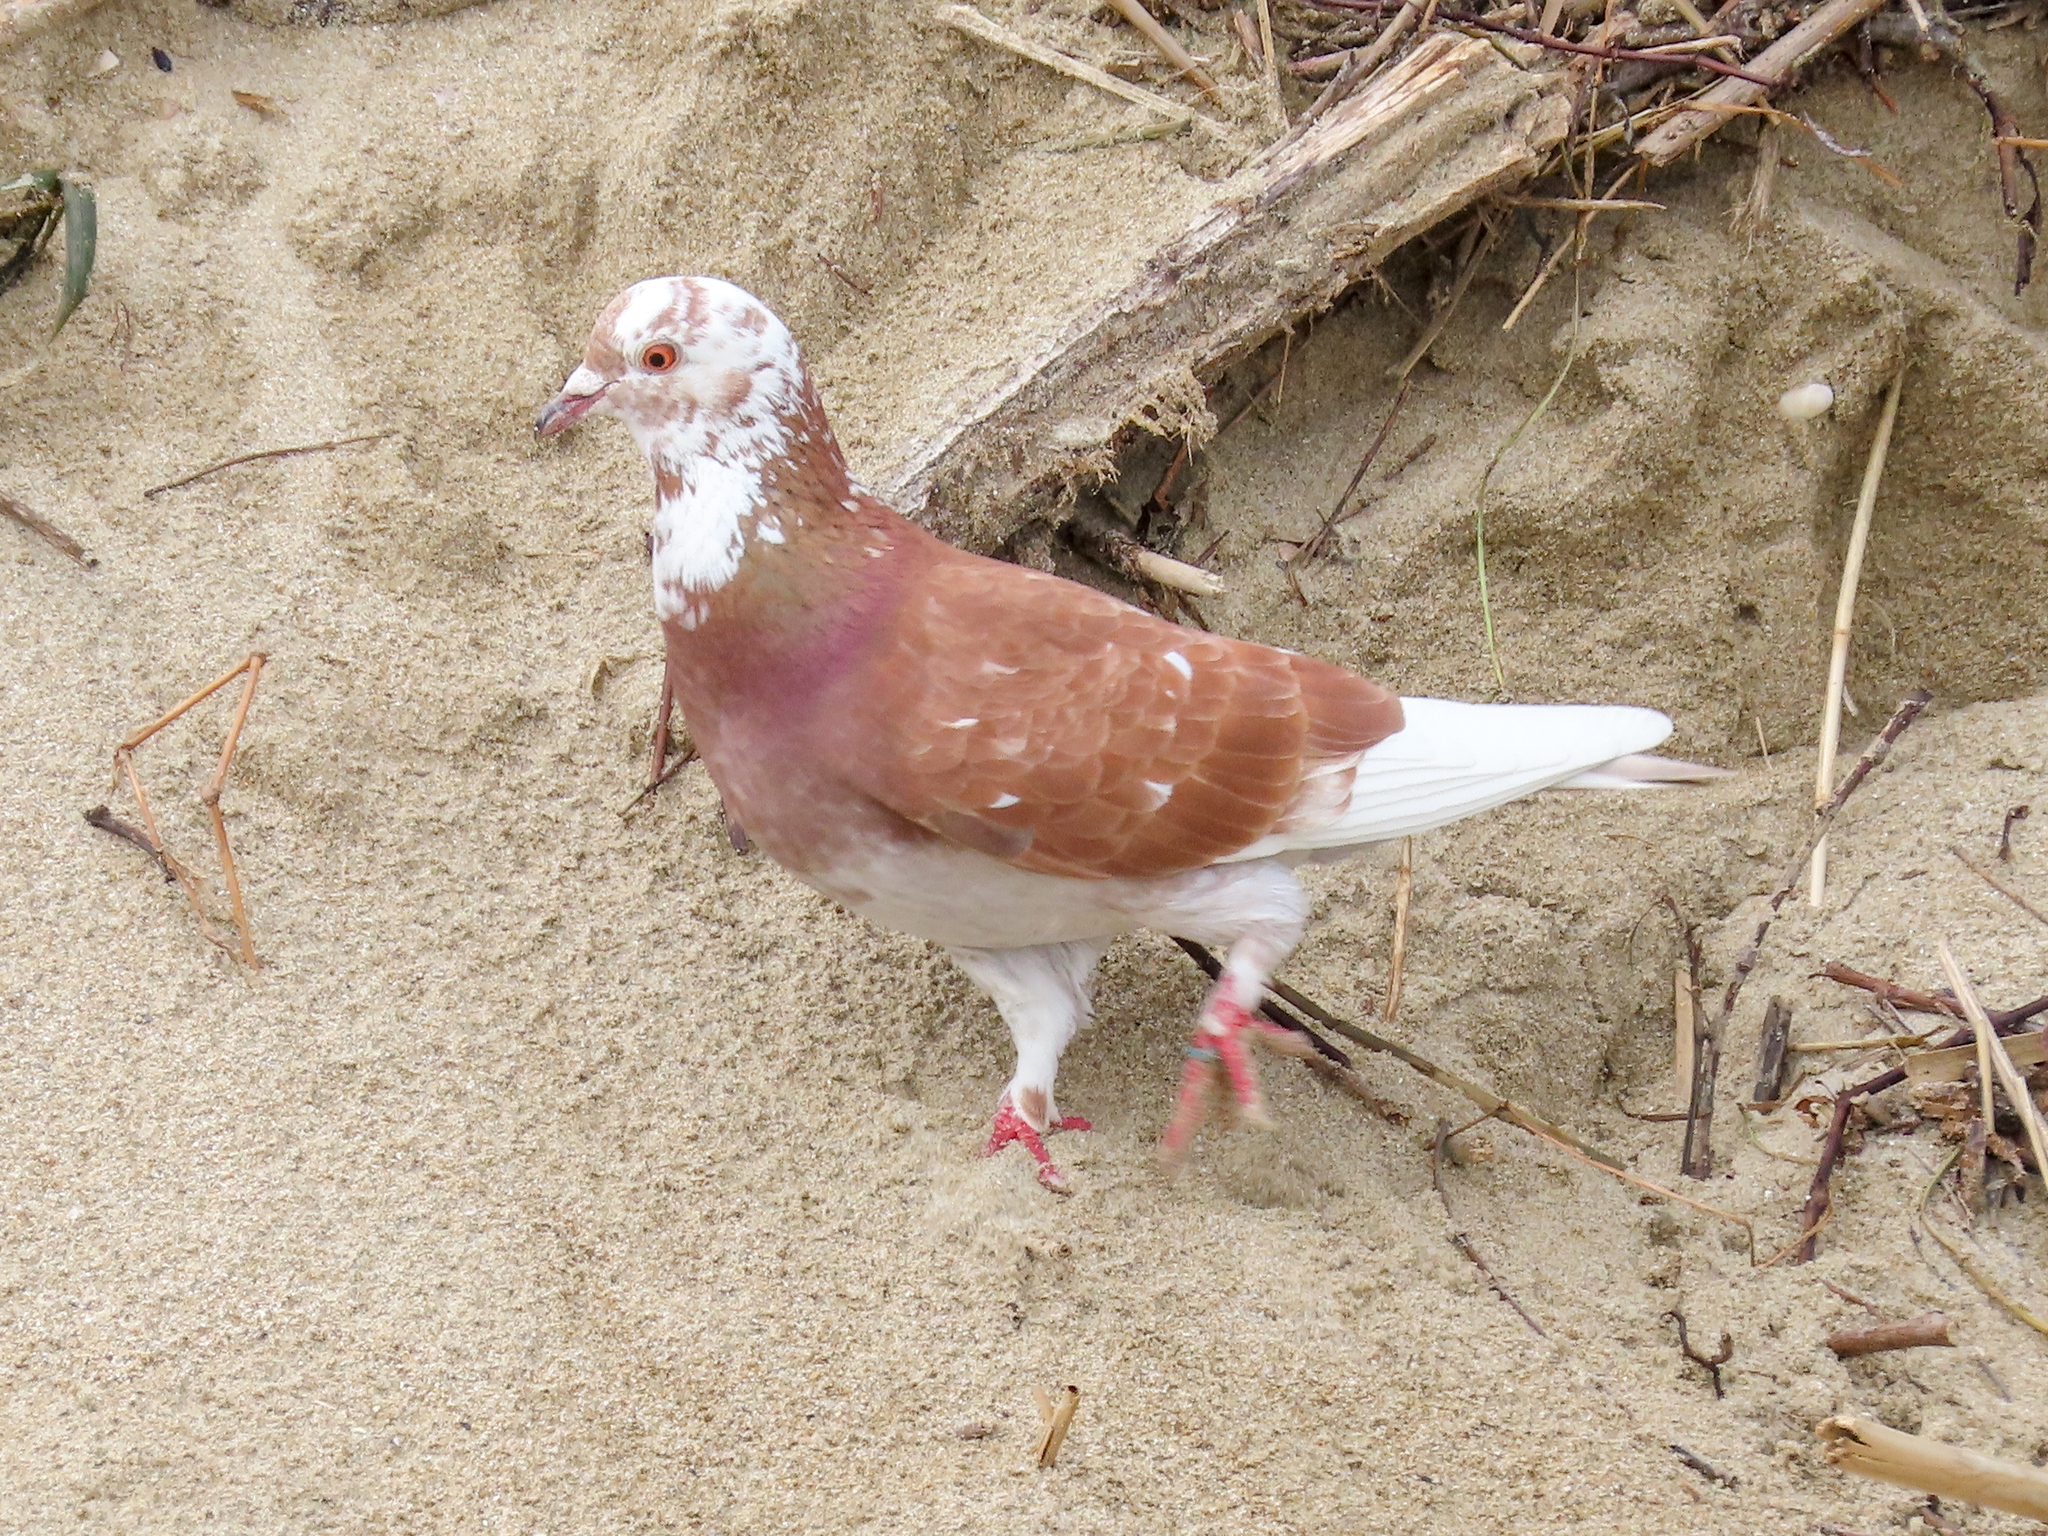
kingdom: Animalia
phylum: Chordata
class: Aves
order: Columbiformes
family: Columbidae
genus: Columba
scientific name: Columba livia
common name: Rock pigeon
